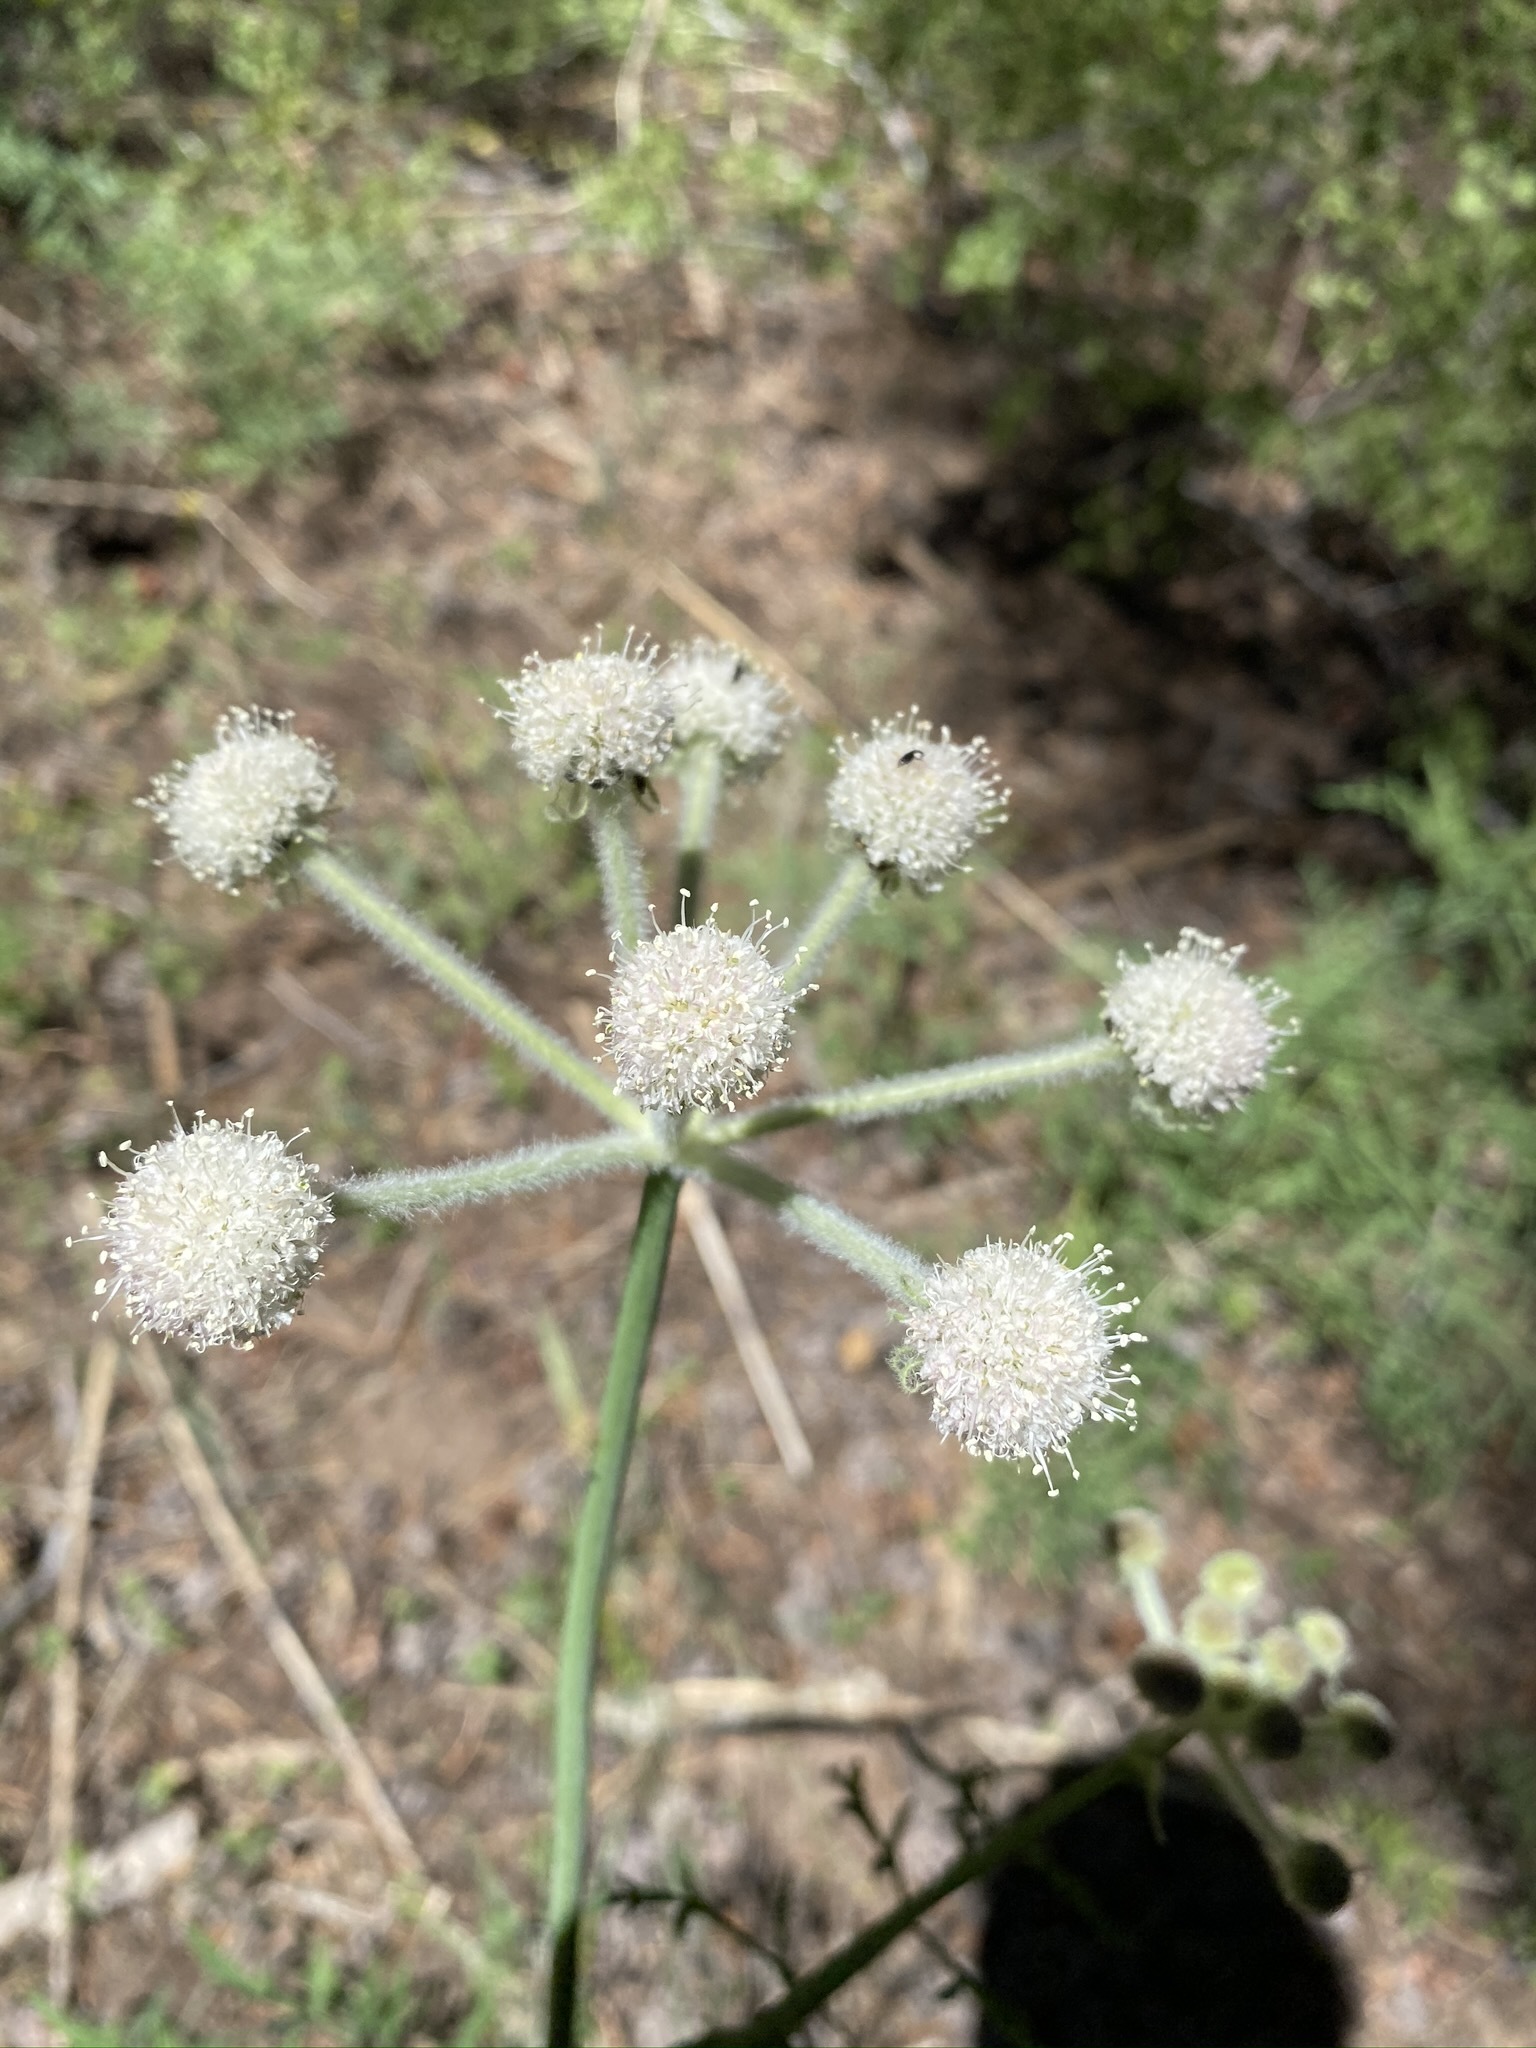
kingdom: Plantae
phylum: Tracheophyta
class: Magnoliopsida
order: Apiales
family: Apiaceae
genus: Angelica
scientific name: Angelica capitellata
